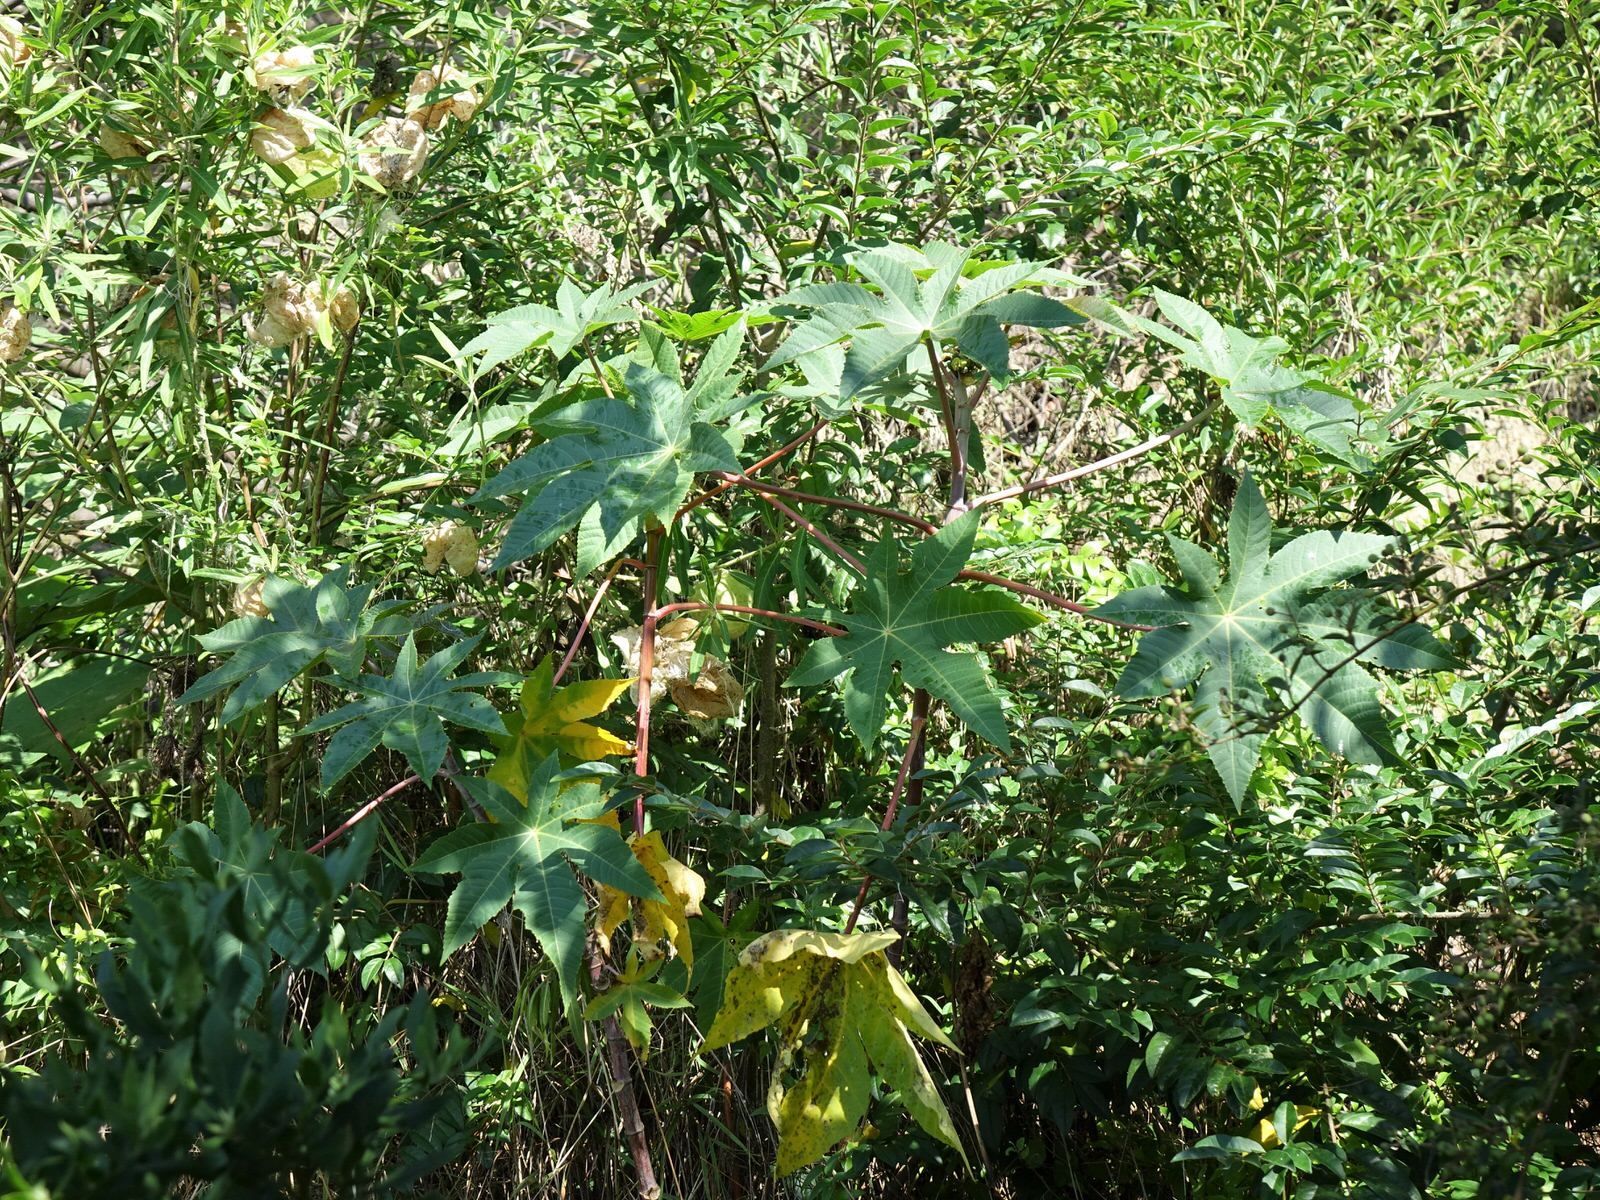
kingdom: Plantae
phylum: Tracheophyta
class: Magnoliopsida
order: Malpighiales
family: Euphorbiaceae
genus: Ricinus
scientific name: Ricinus communis
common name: Castor-oil-plant
